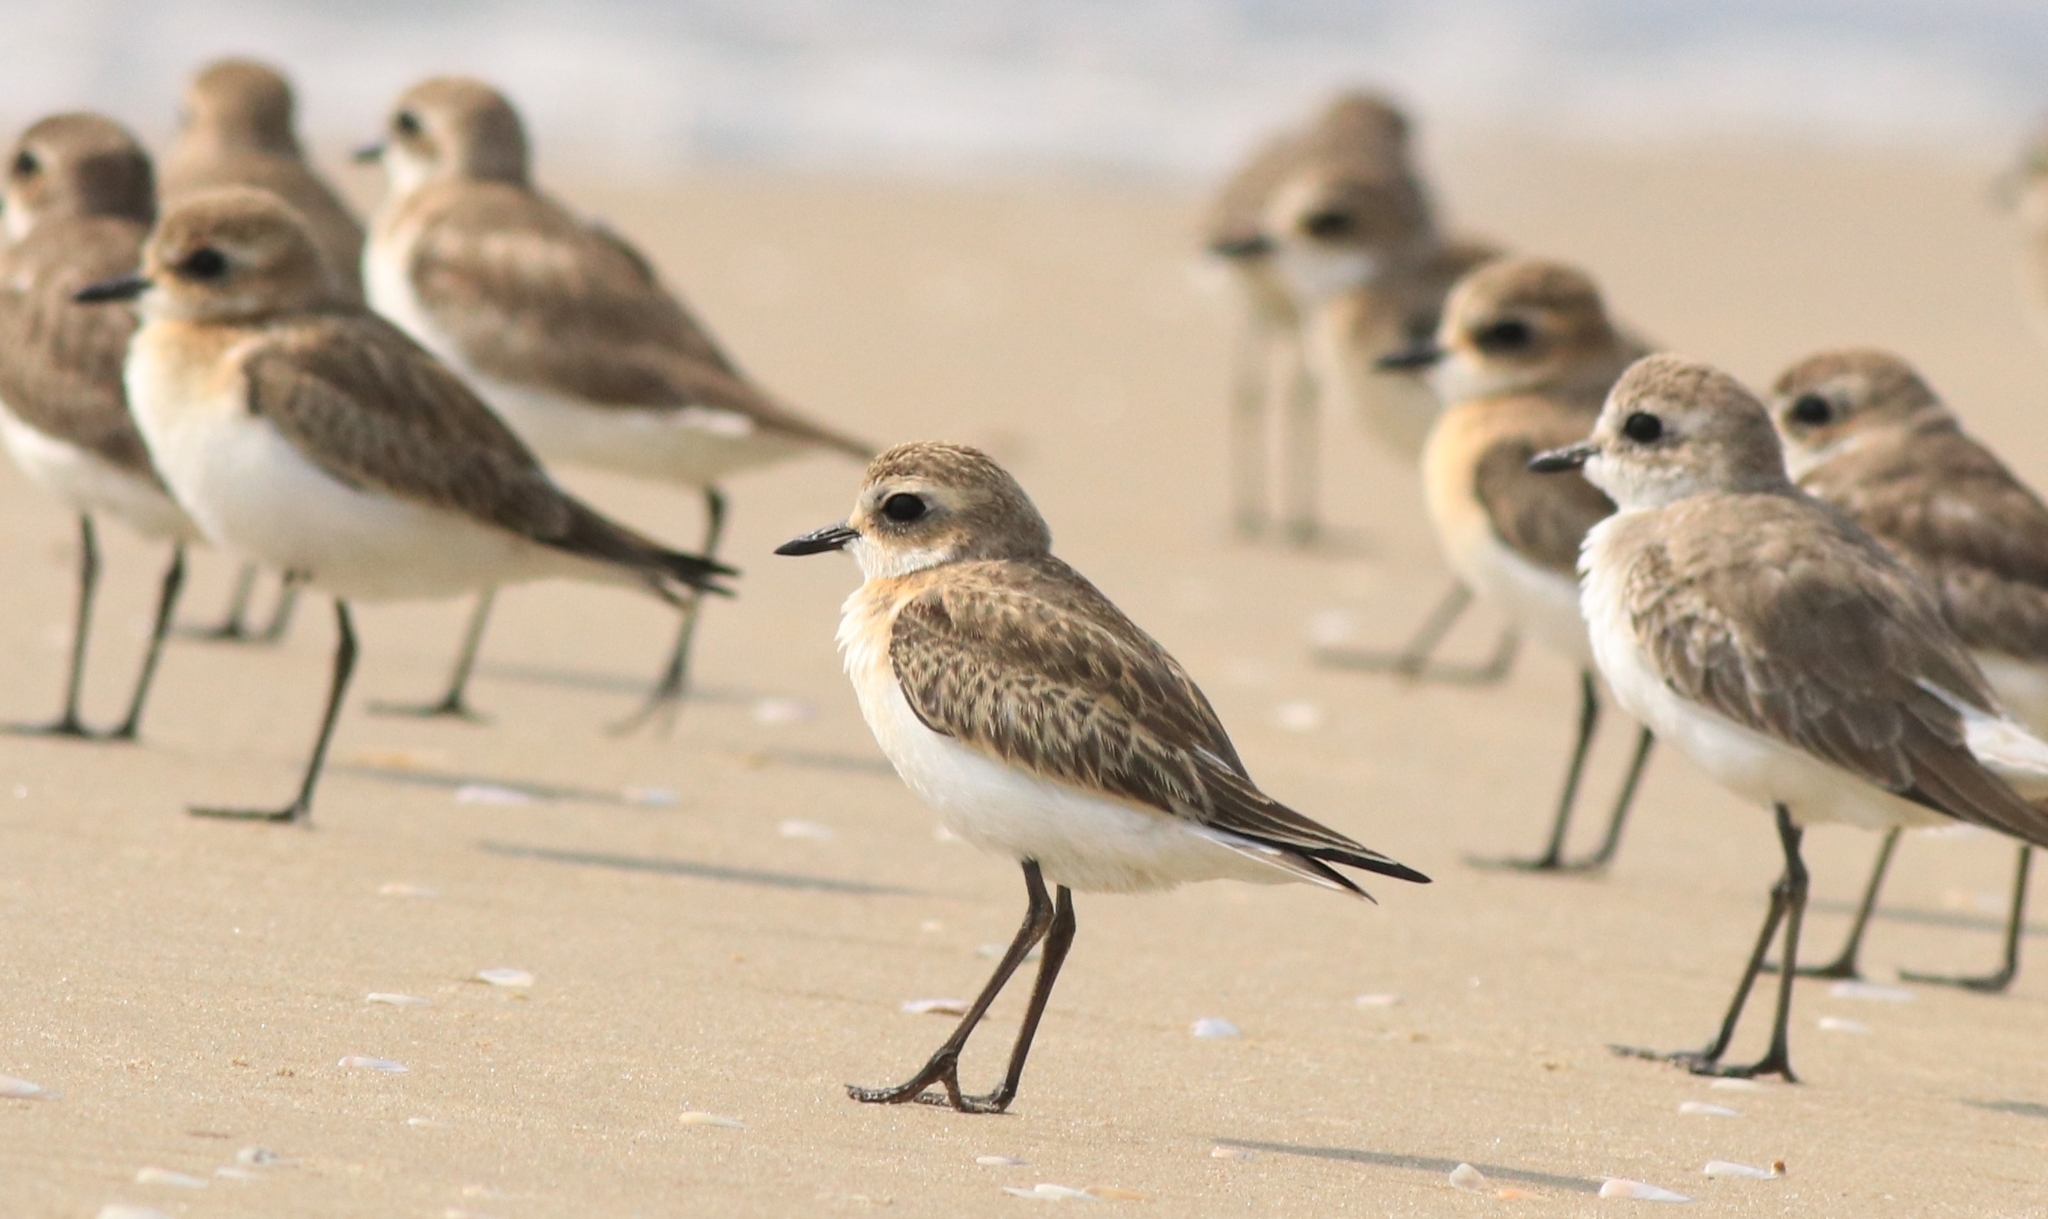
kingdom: Animalia
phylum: Chordata
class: Aves
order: Charadriiformes
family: Charadriidae
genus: Anarhynchus
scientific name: Anarhynchus
